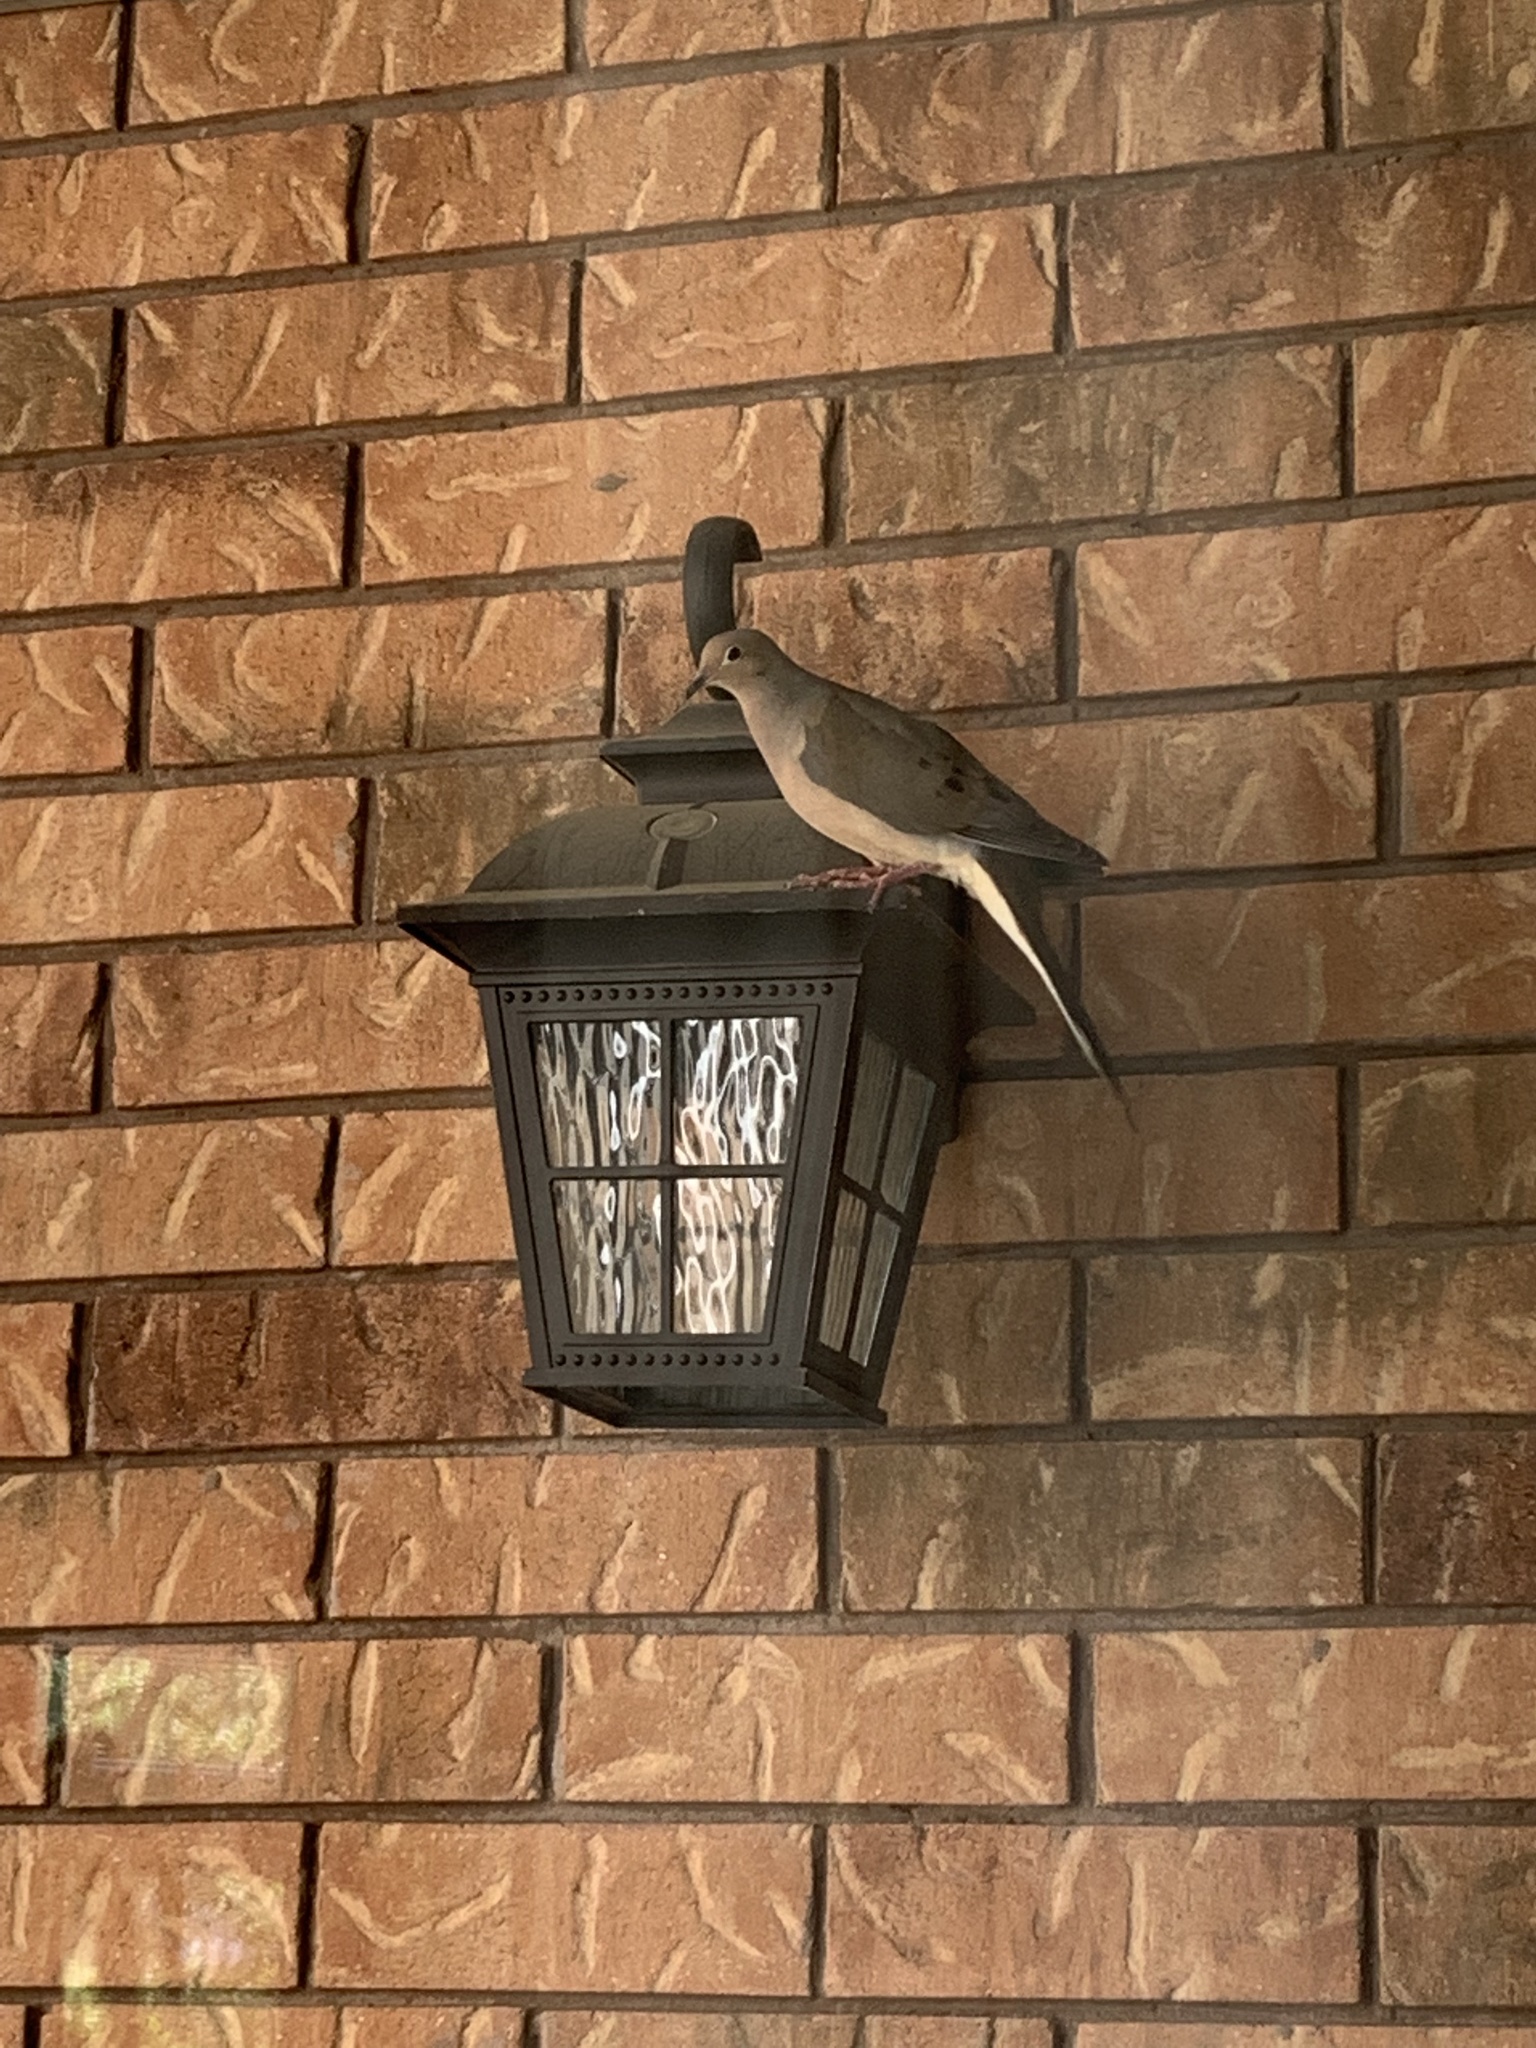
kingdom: Animalia
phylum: Chordata
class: Aves
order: Columbiformes
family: Columbidae
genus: Zenaida
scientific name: Zenaida macroura
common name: Mourning dove
